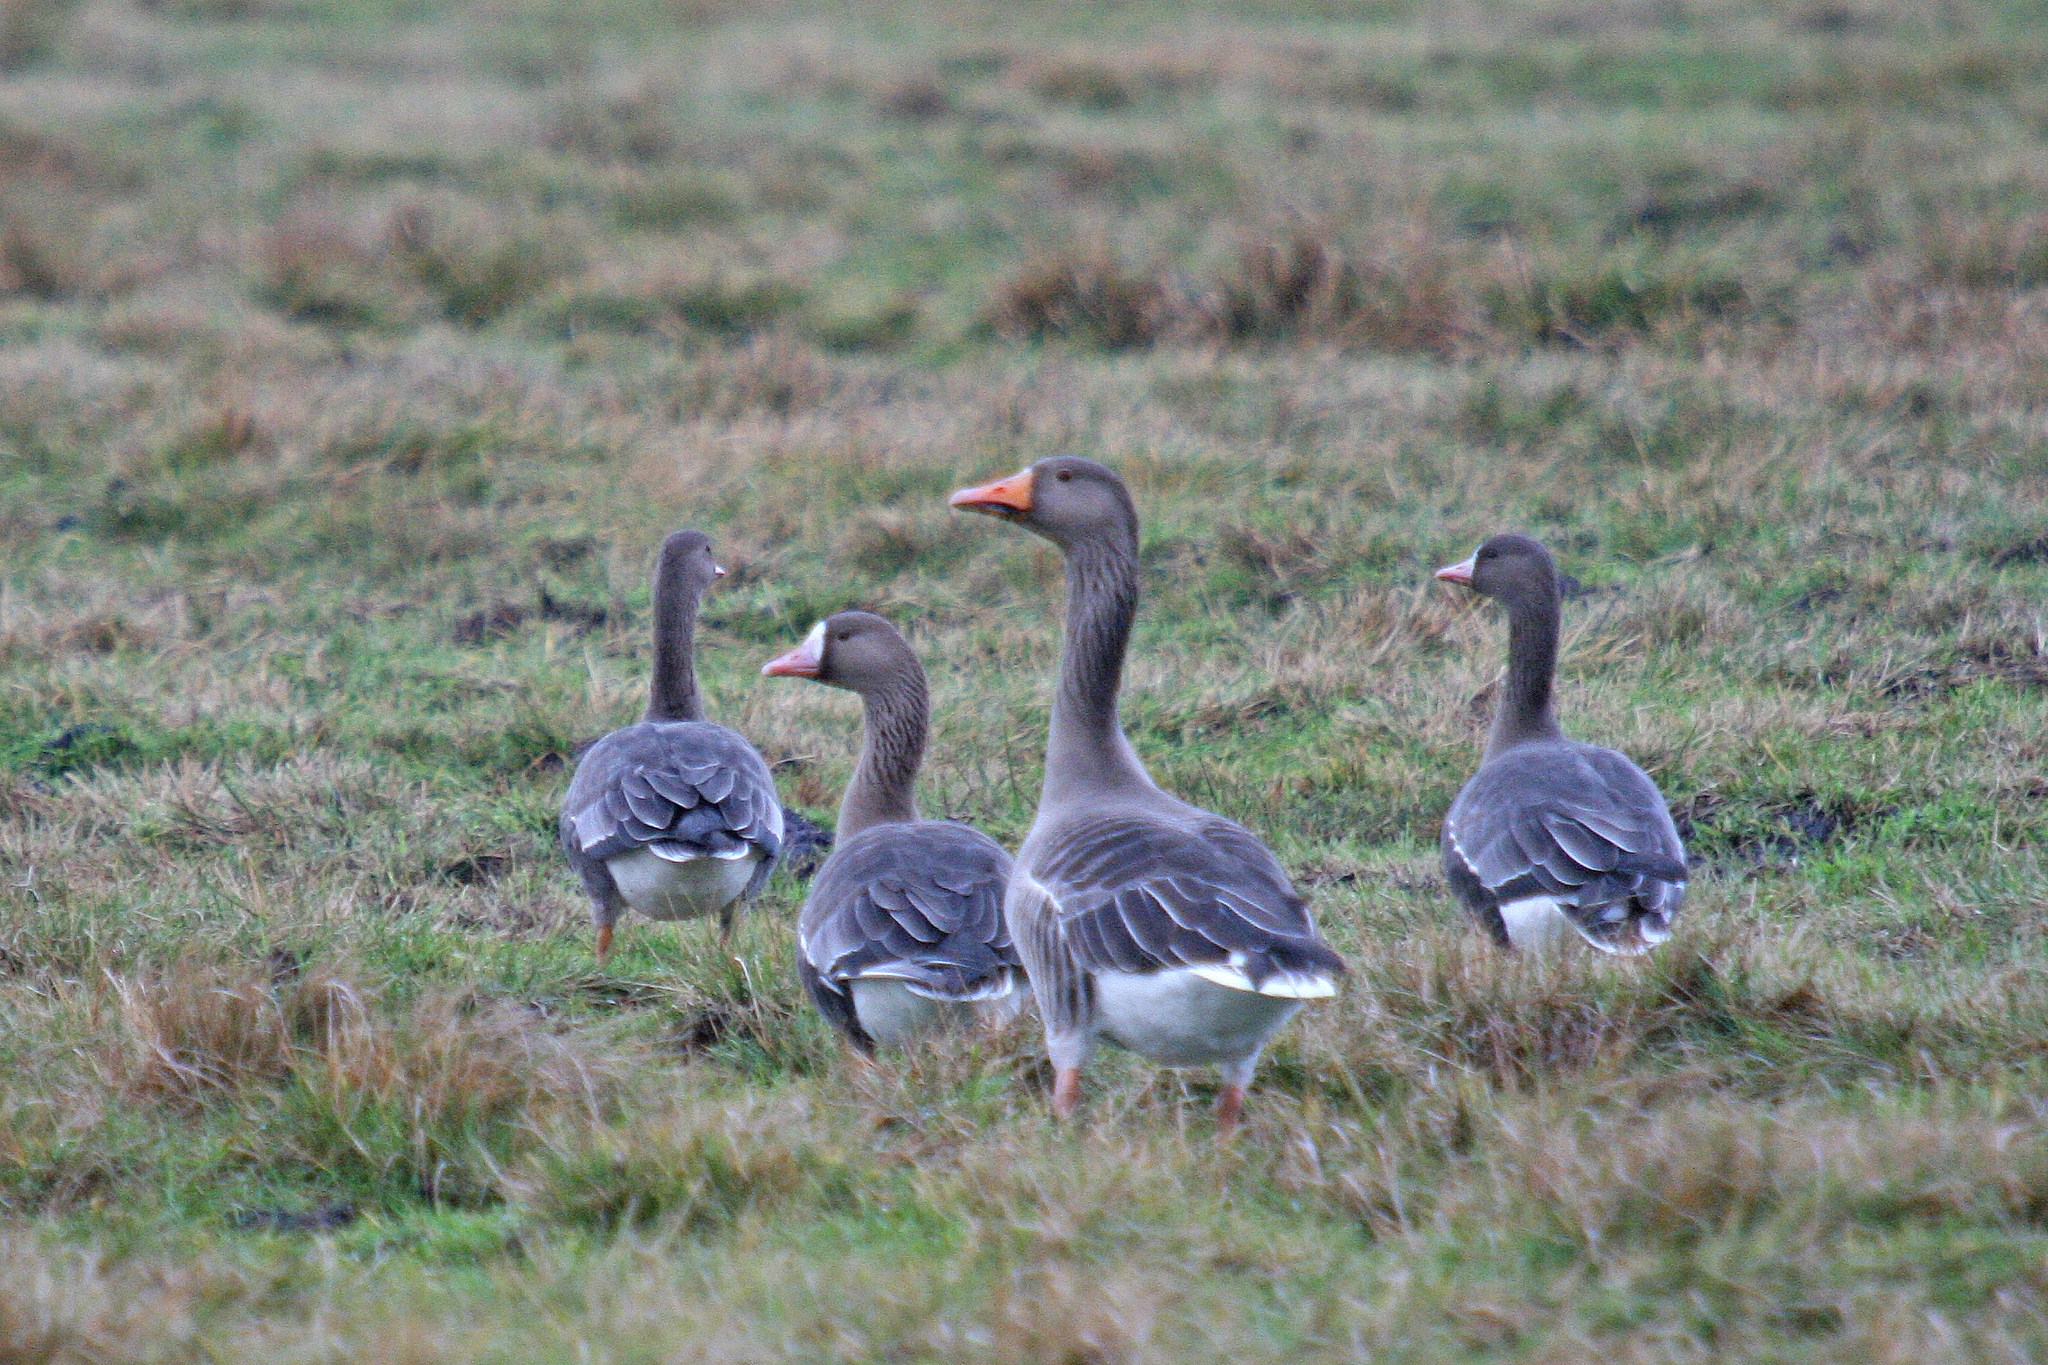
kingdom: Animalia
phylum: Chordata
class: Aves
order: Anseriformes
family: Anatidae
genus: Anser
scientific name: Anser anser
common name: Greylag goose
